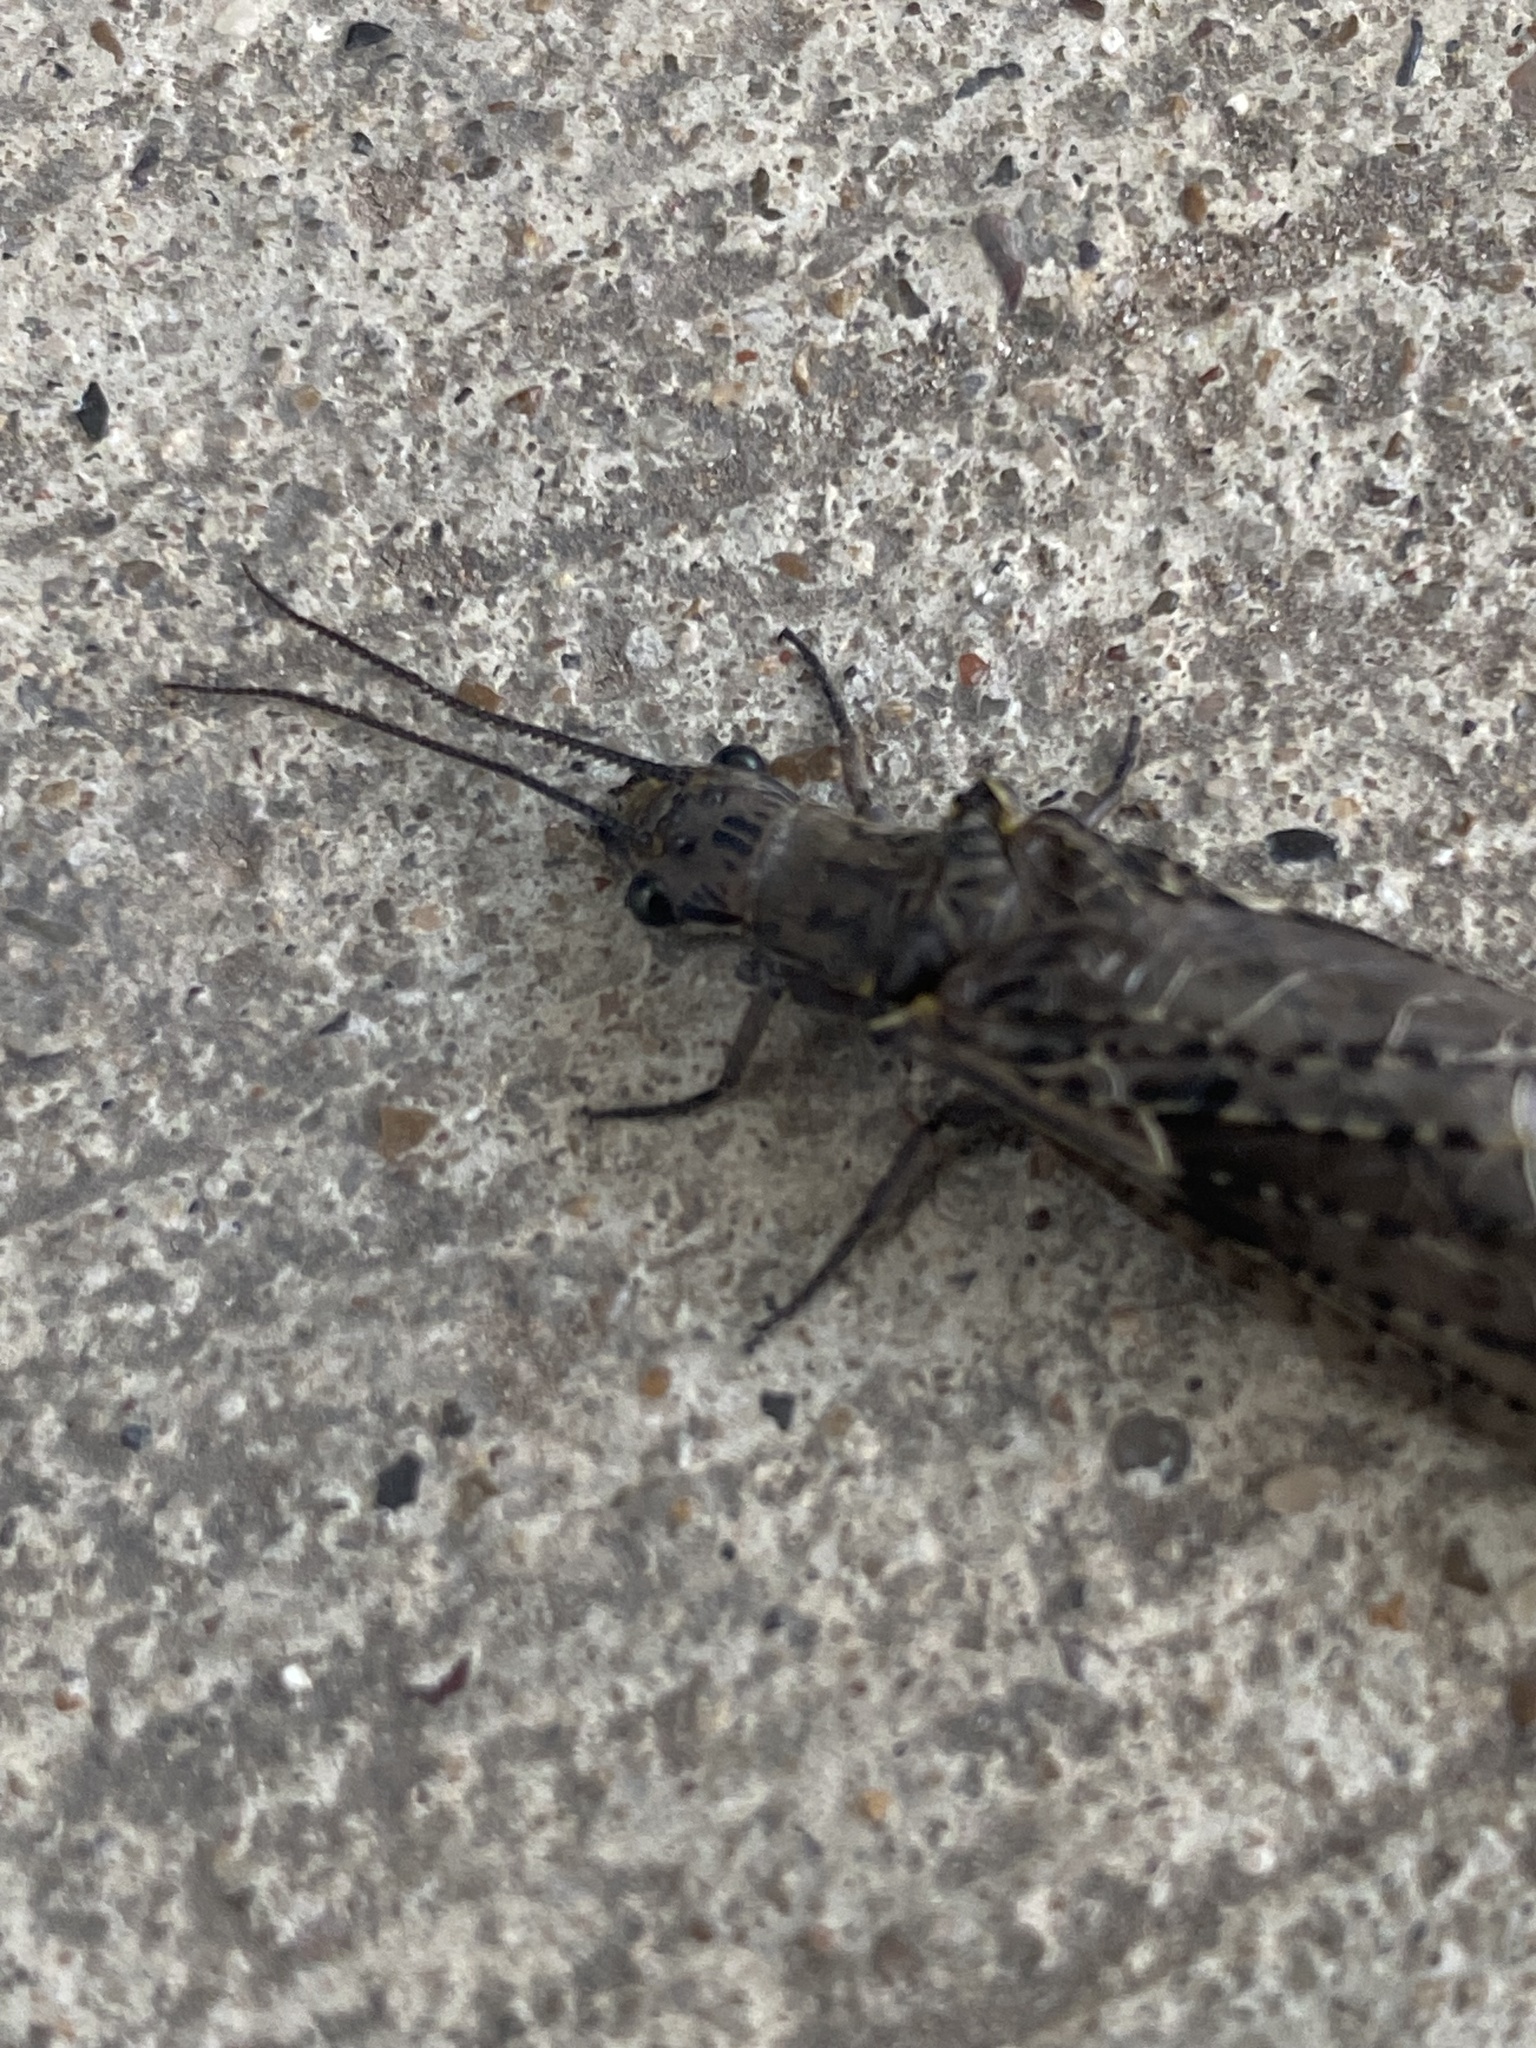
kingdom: Animalia
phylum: Arthropoda
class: Insecta
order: Megaloptera
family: Corydalidae
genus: Chauliodes
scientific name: Chauliodes rastricornis
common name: Spring fishfly
